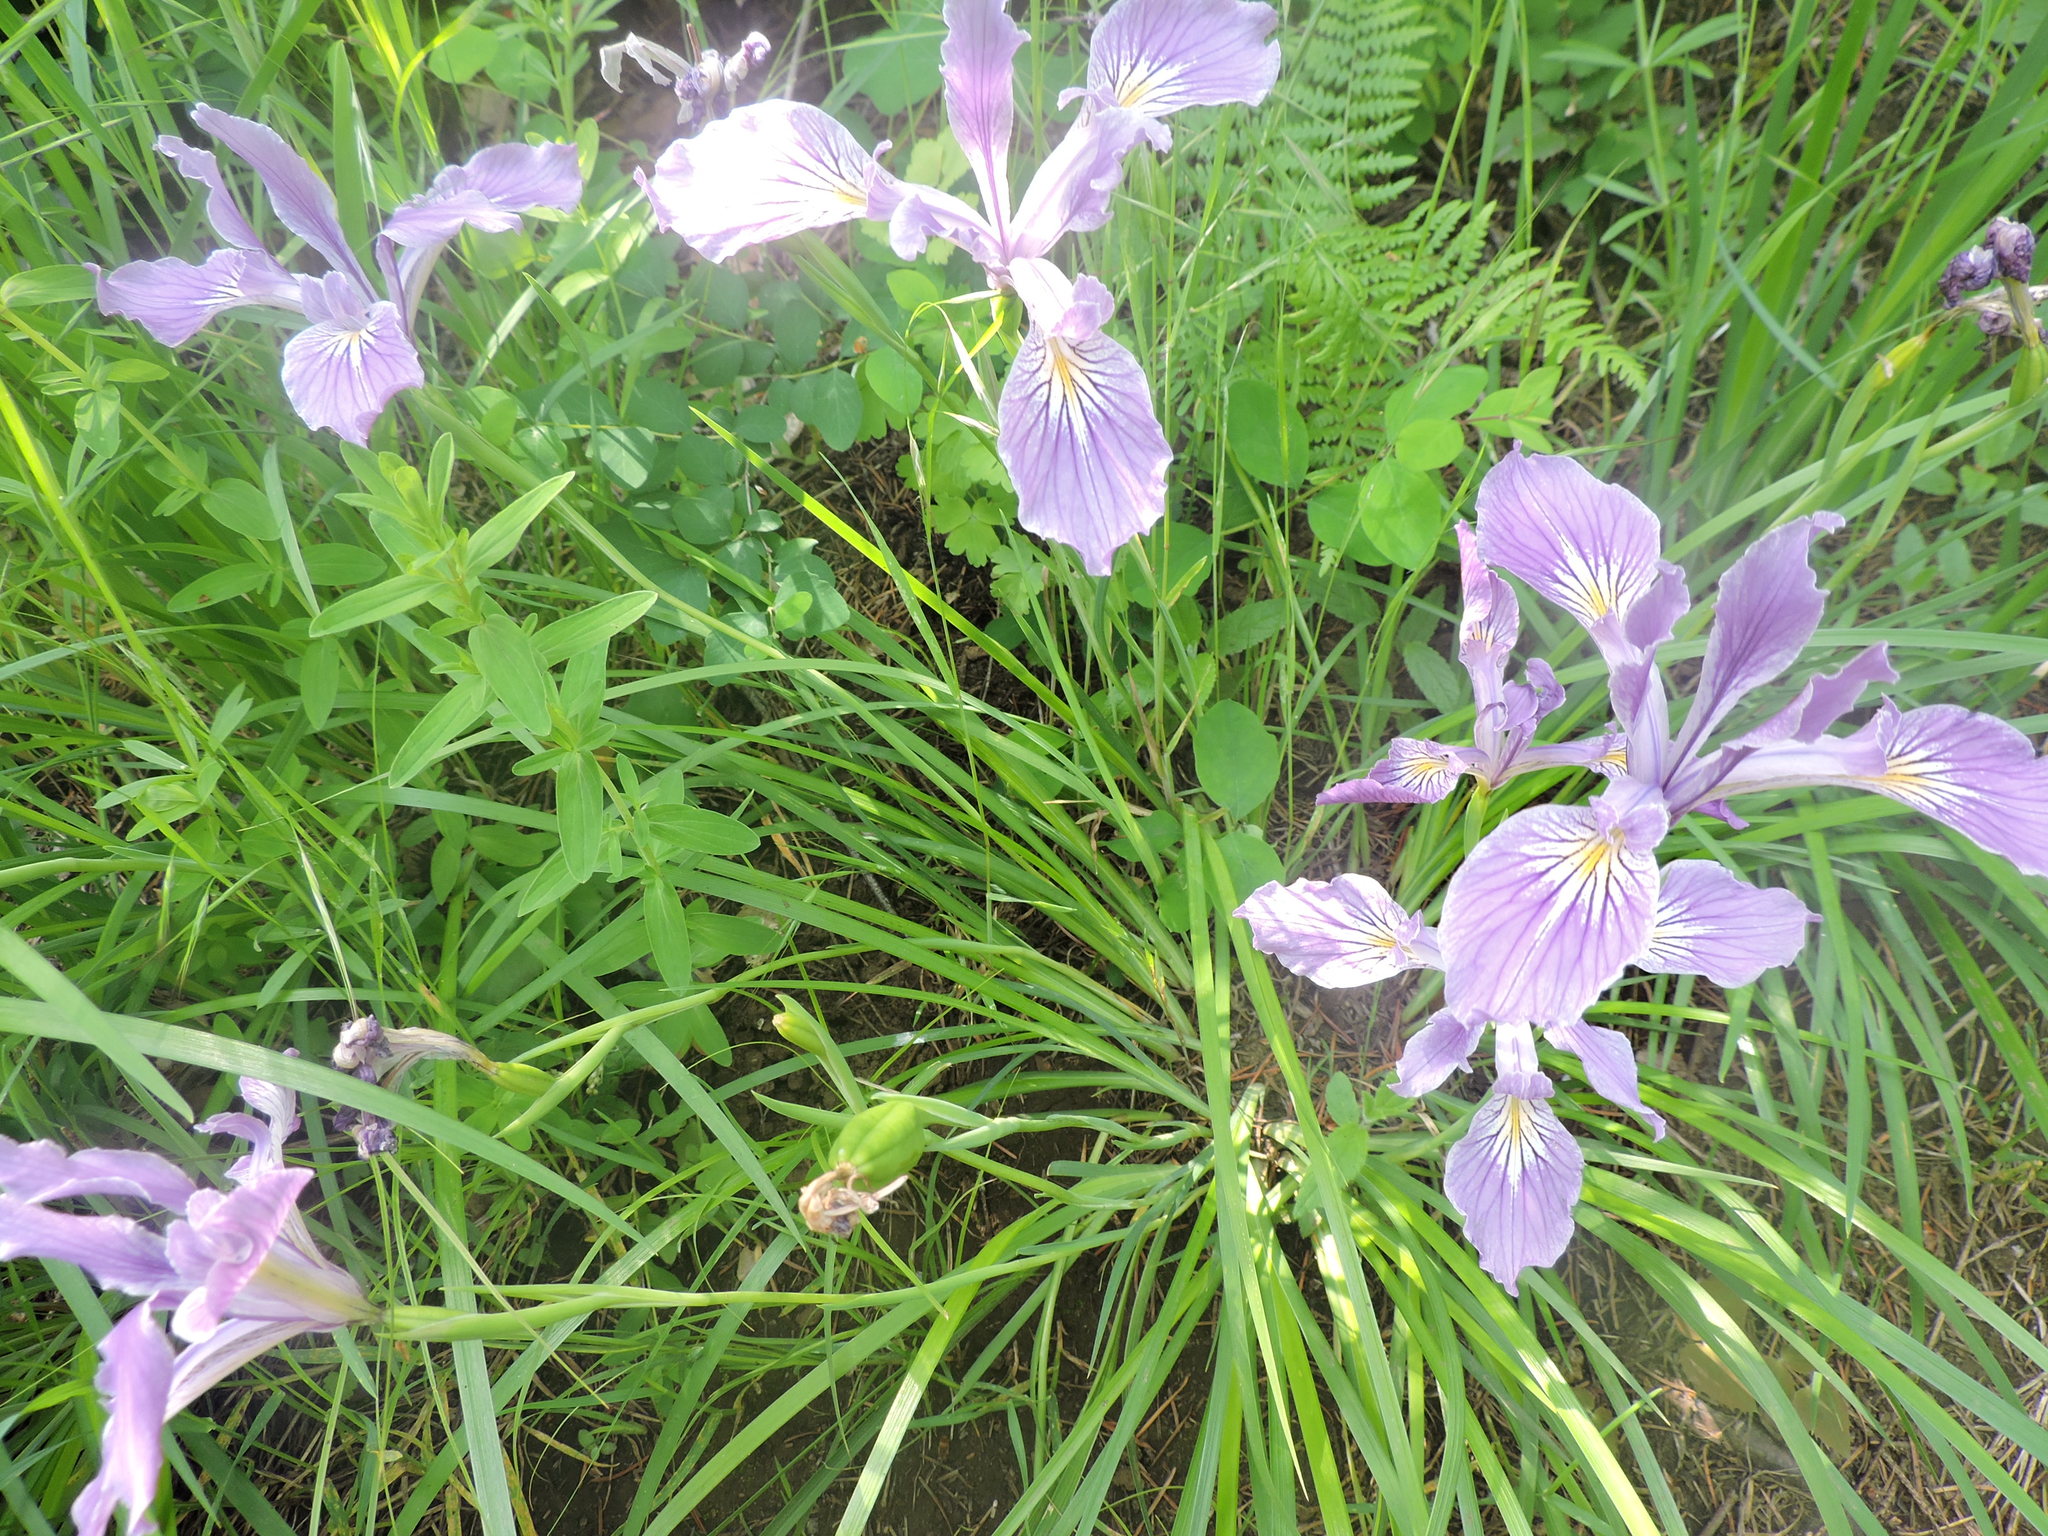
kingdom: Plantae
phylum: Tracheophyta
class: Liliopsida
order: Asparagales
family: Iridaceae
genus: Iris
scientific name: Iris tenax
